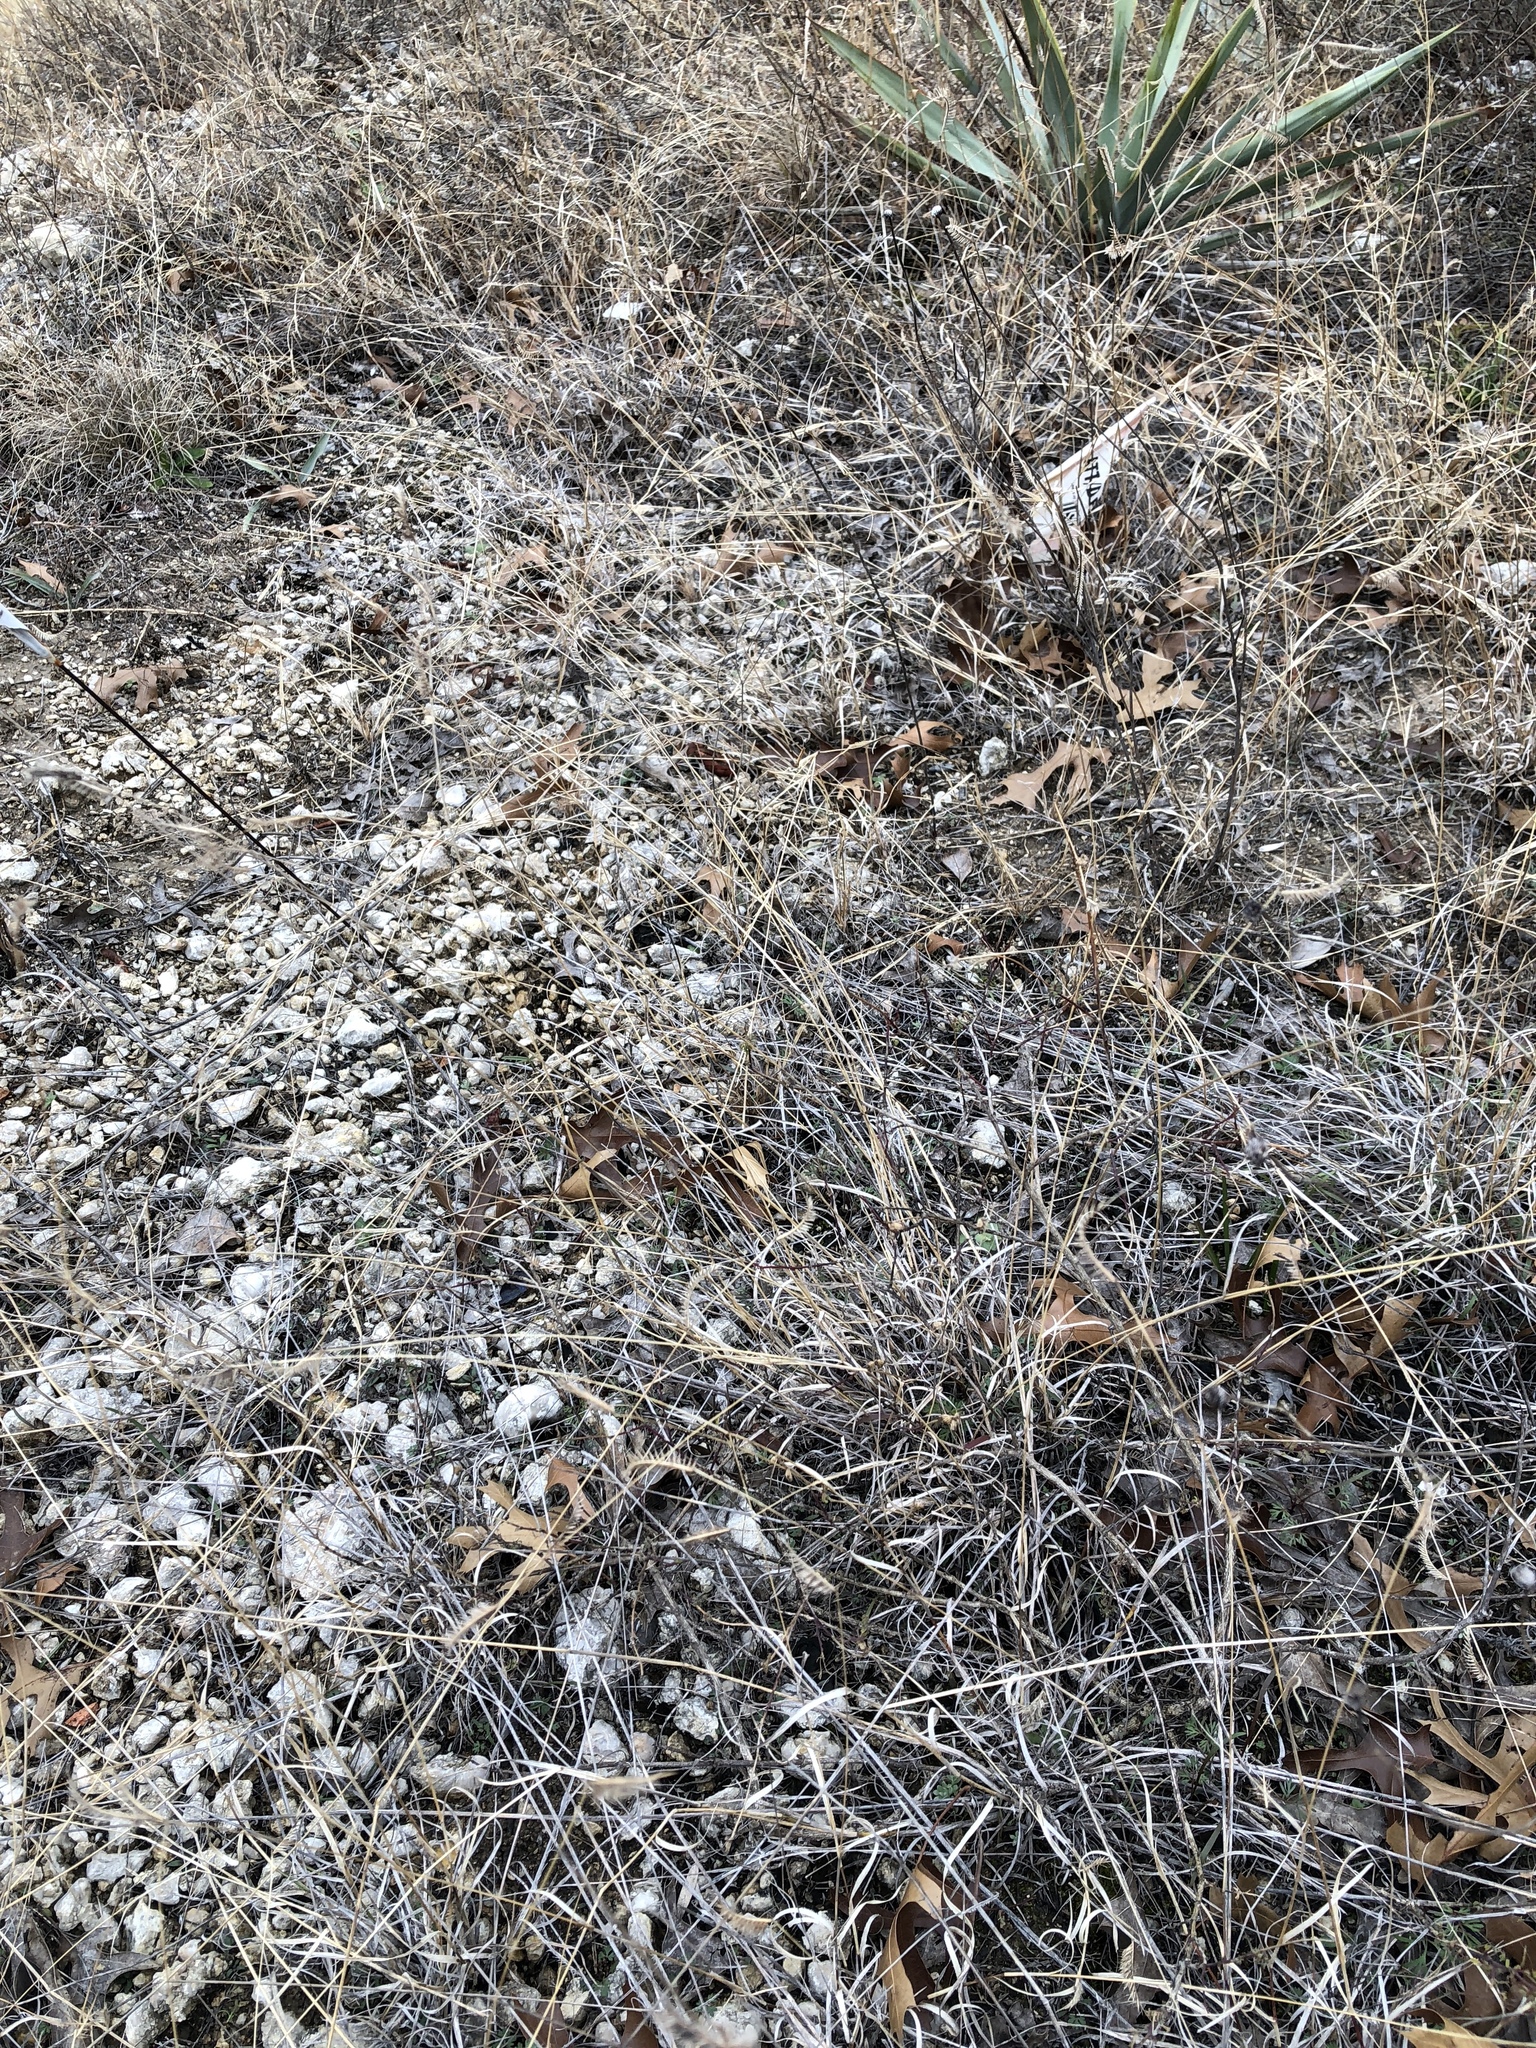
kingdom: Plantae
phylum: Tracheophyta
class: Liliopsida
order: Poales
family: Poaceae
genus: Bouteloua
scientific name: Bouteloua hirsuta
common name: Hairy grama
